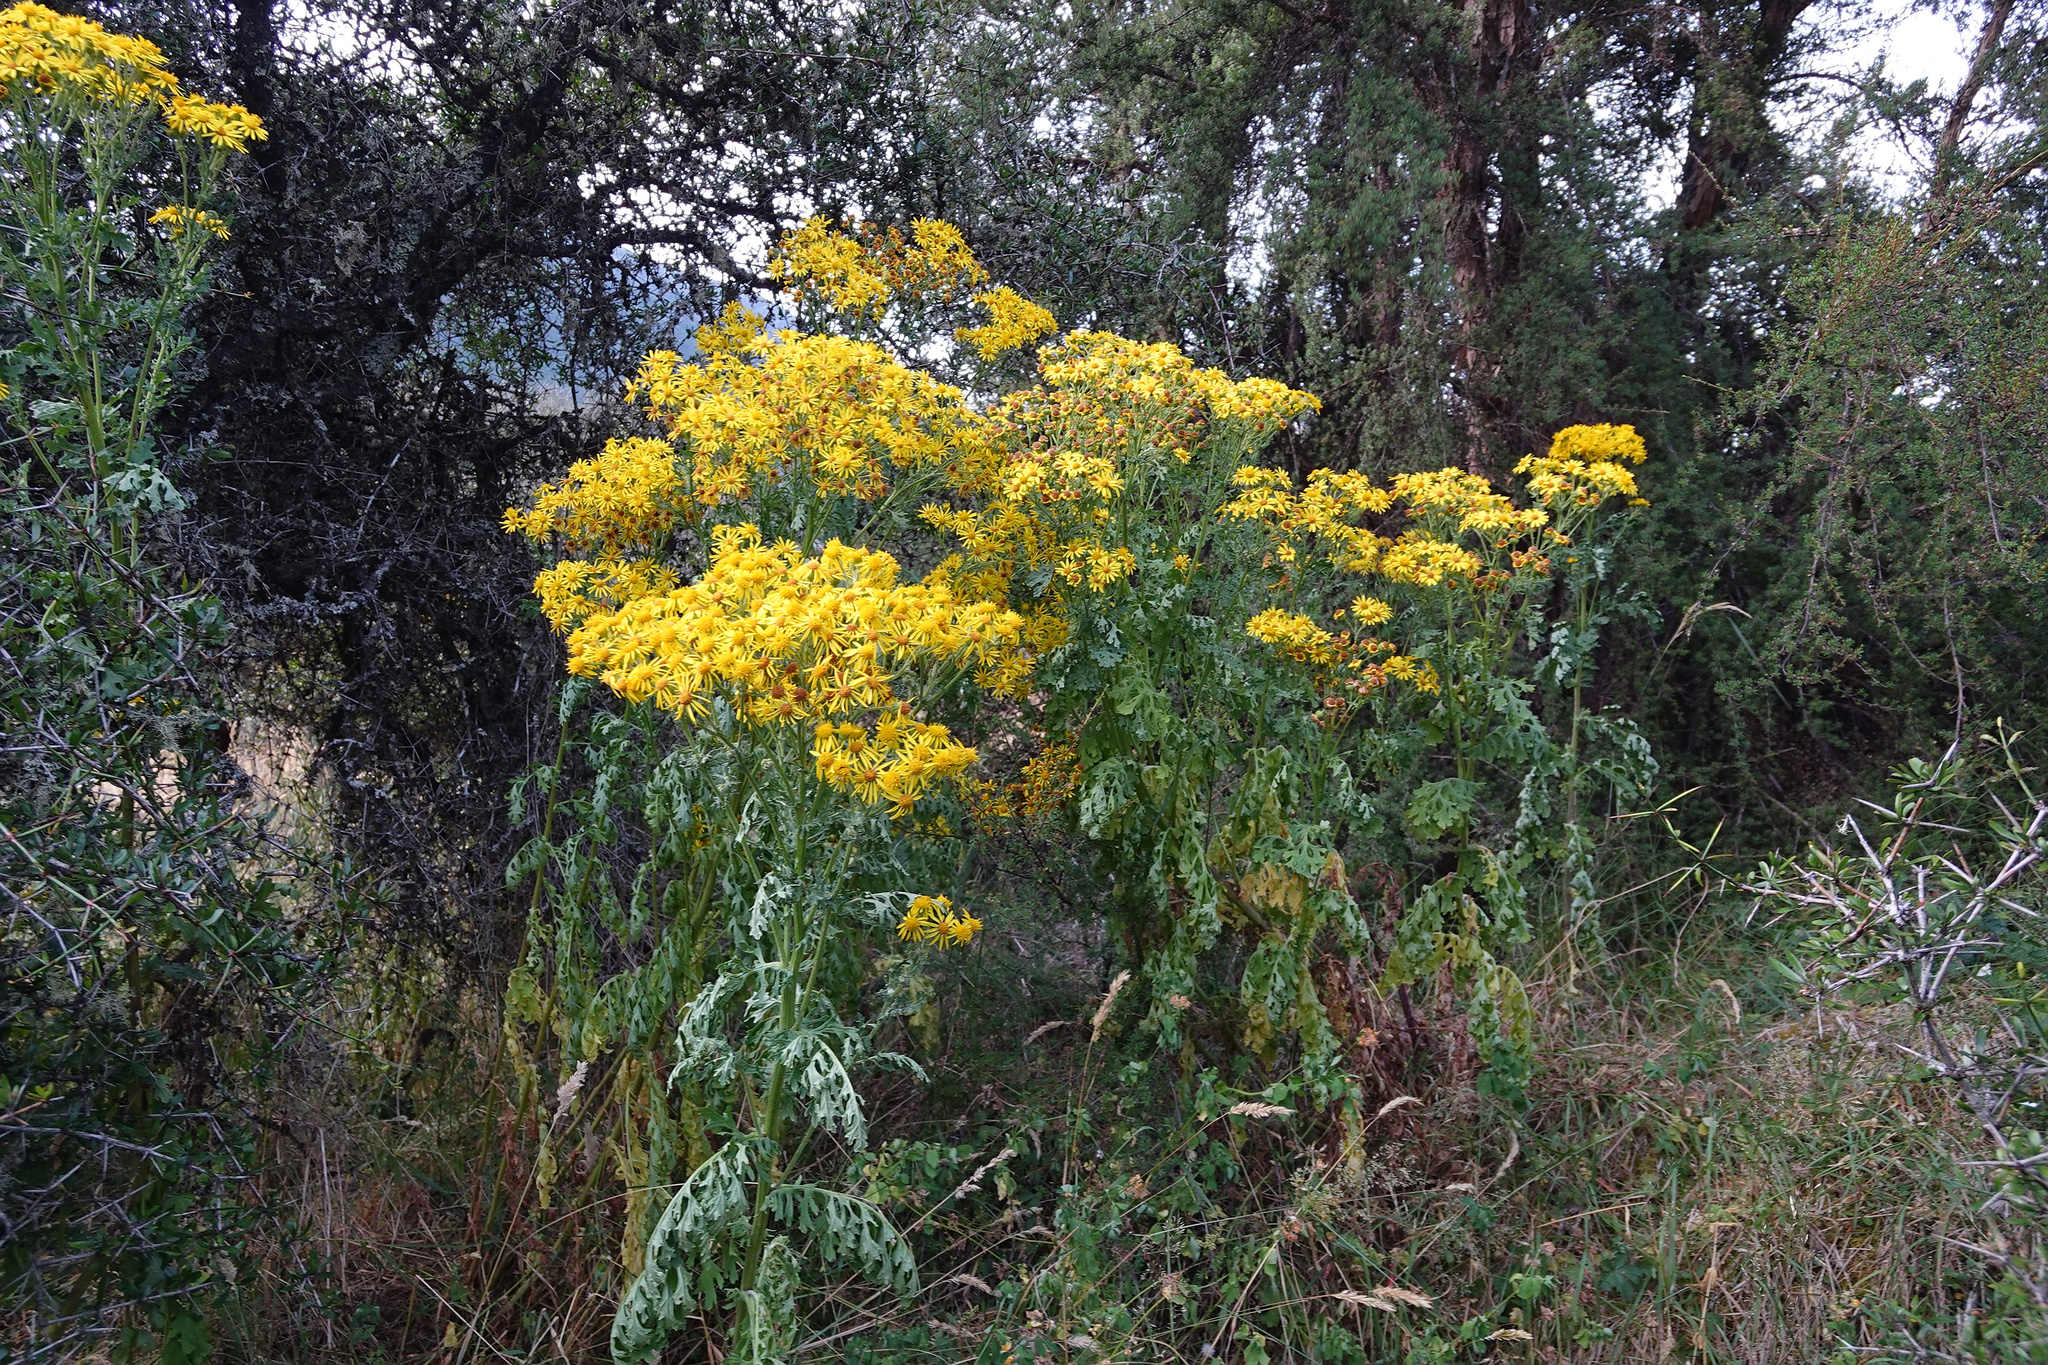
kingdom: Plantae
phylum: Tracheophyta
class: Magnoliopsida
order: Asterales
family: Asteraceae
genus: Jacobaea
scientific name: Jacobaea vulgaris
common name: Stinking willie
